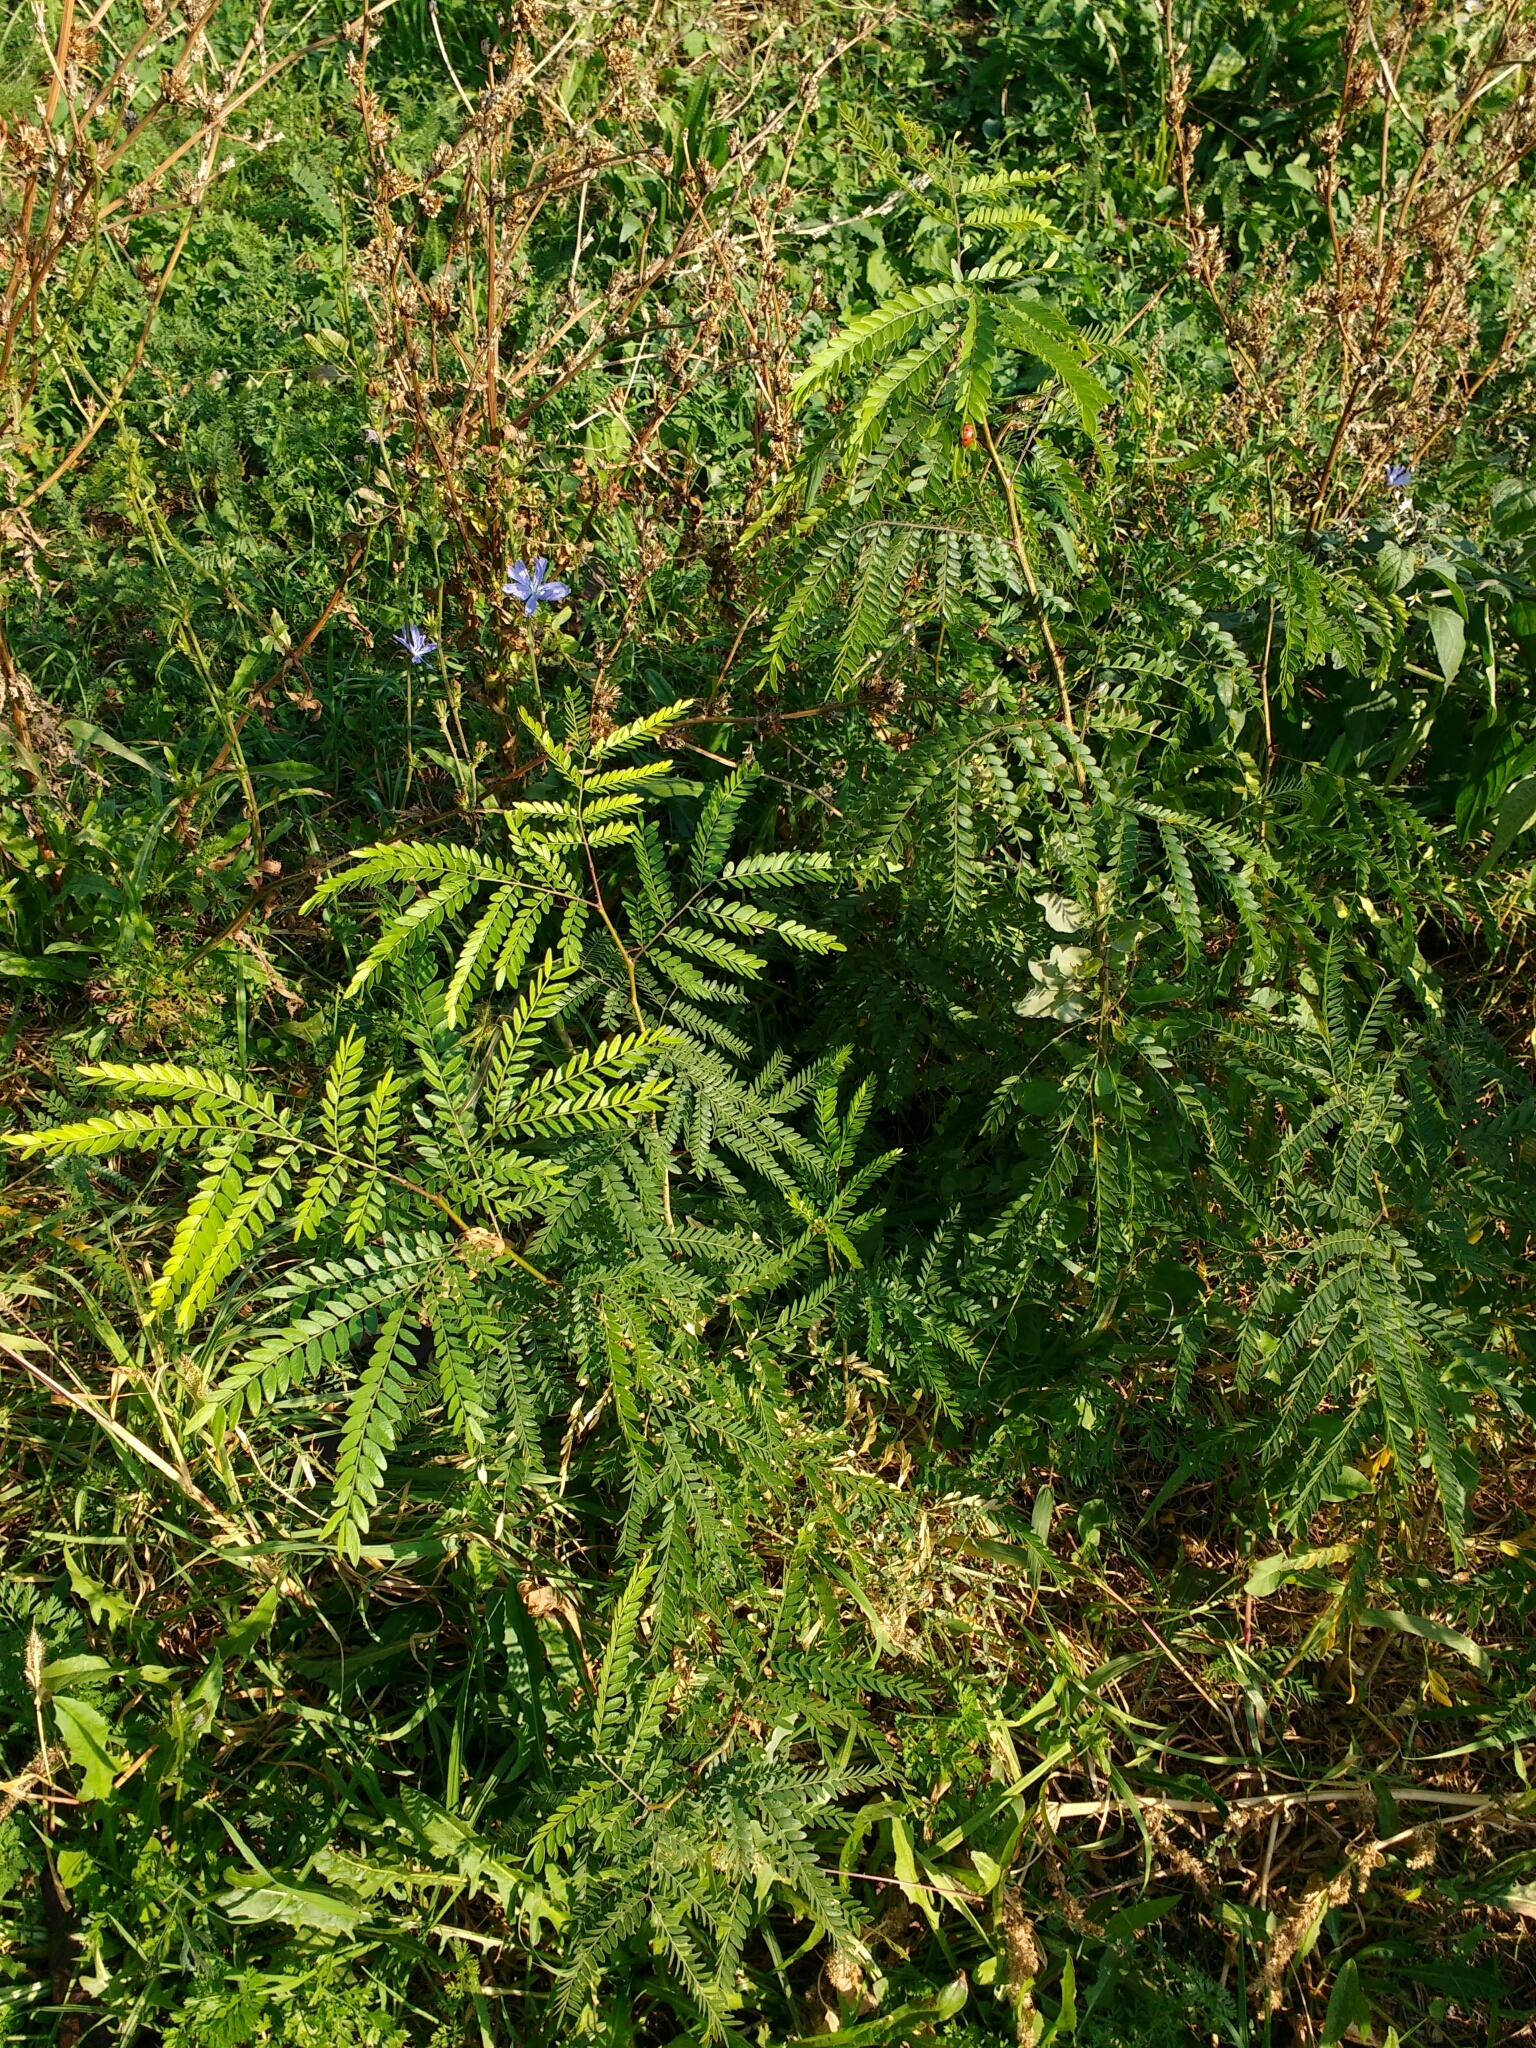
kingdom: Plantae
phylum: Tracheophyta
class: Magnoliopsida
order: Fabales
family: Fabaceae
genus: Gleditsia
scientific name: Gleditsia triacanthos
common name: Common honeylocust
